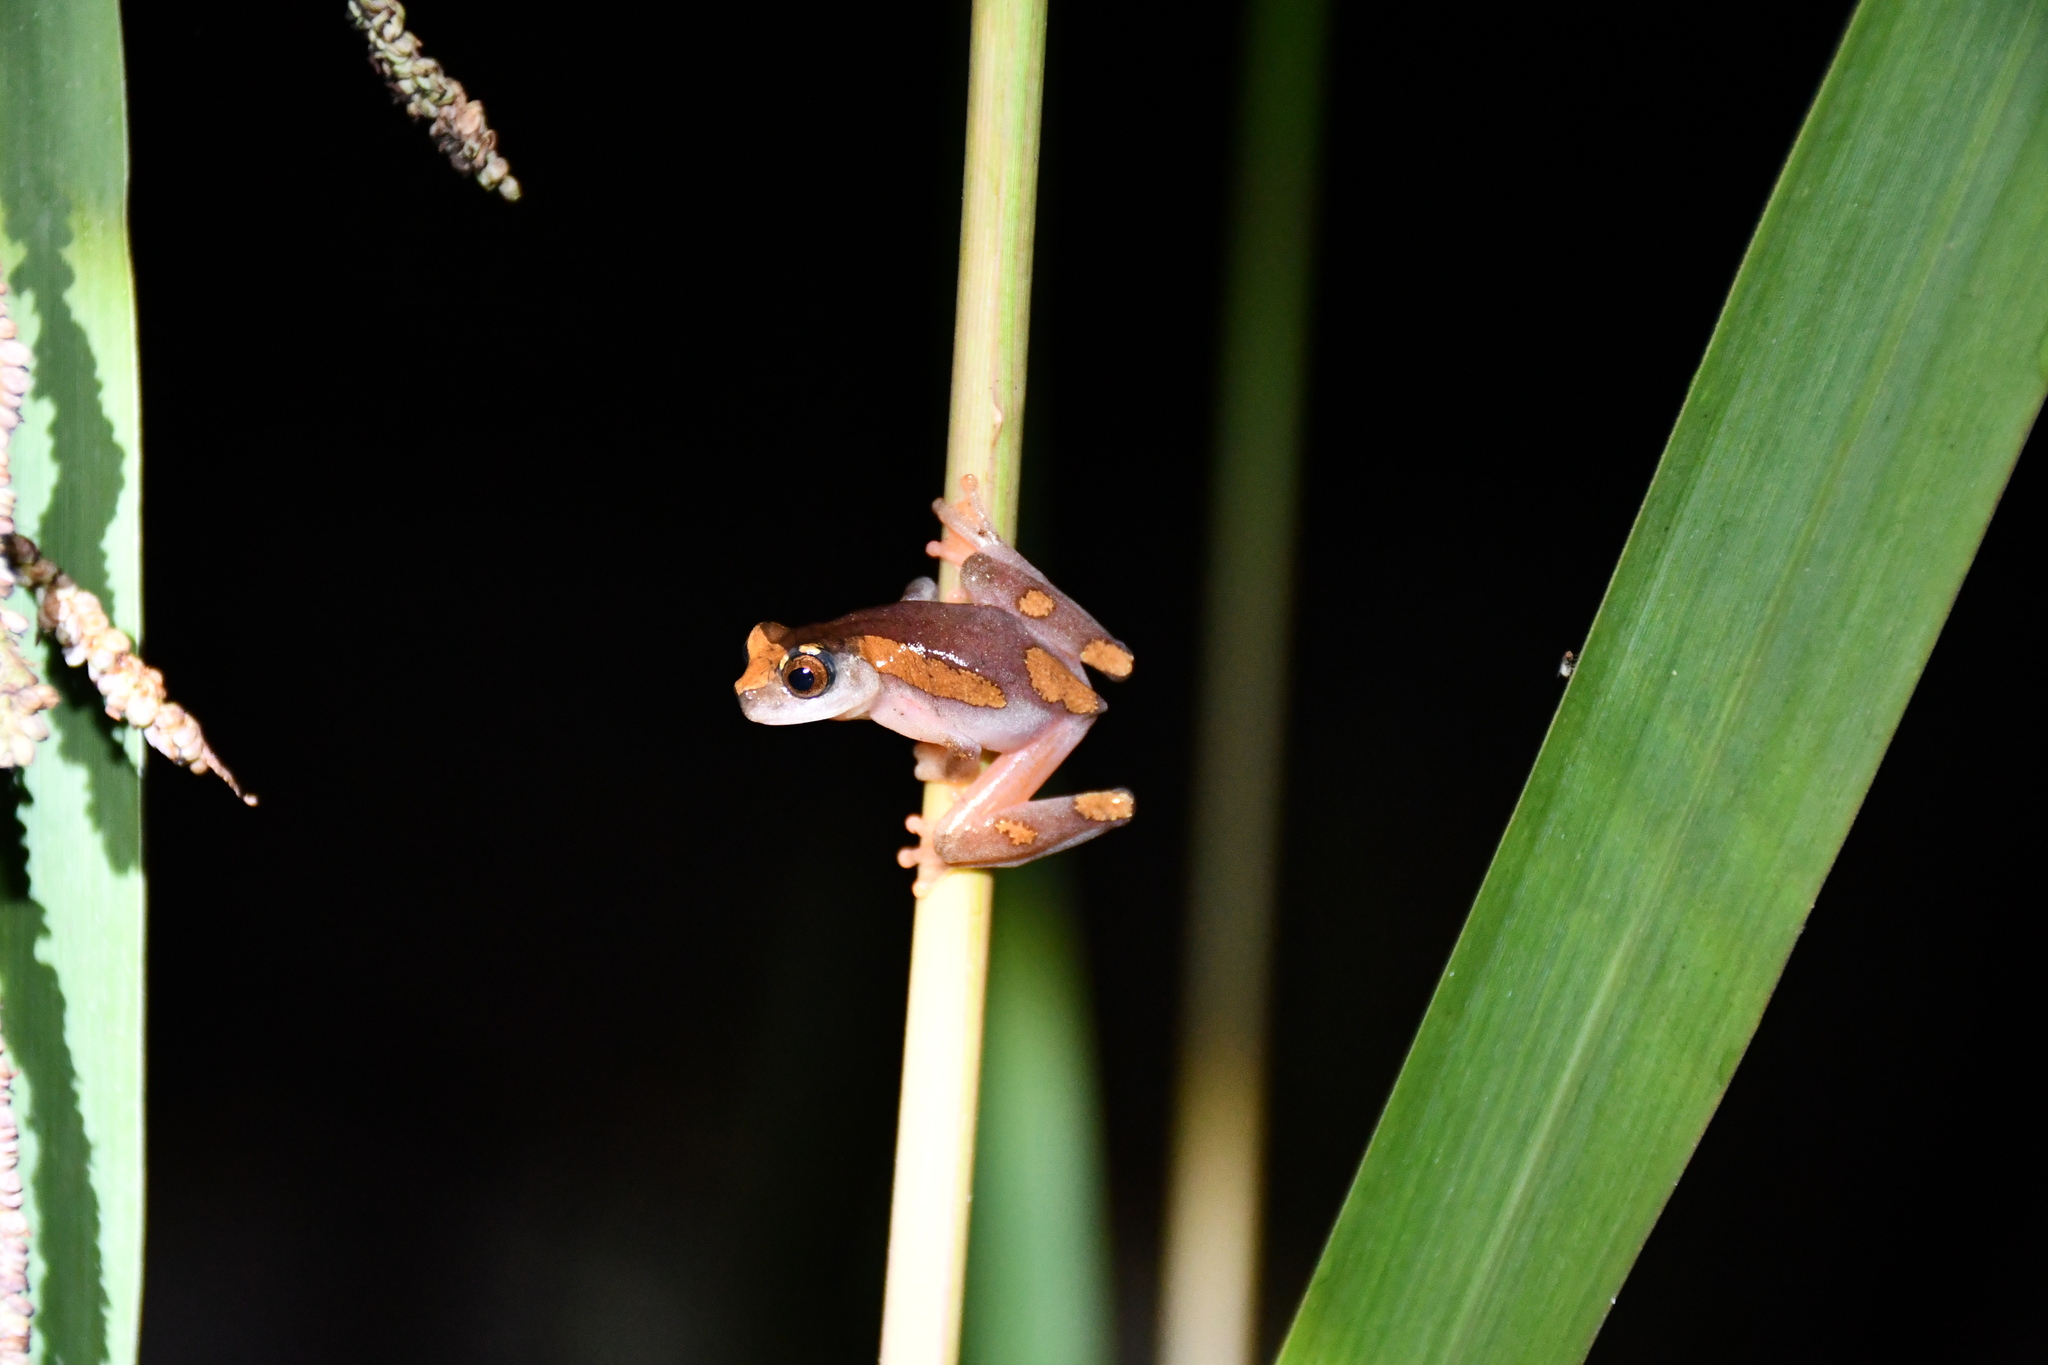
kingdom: Animalia
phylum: Chordata
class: Amphibia
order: Anura
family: Hylidae
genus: Dendropsophus
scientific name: Dendropsophus arndti
